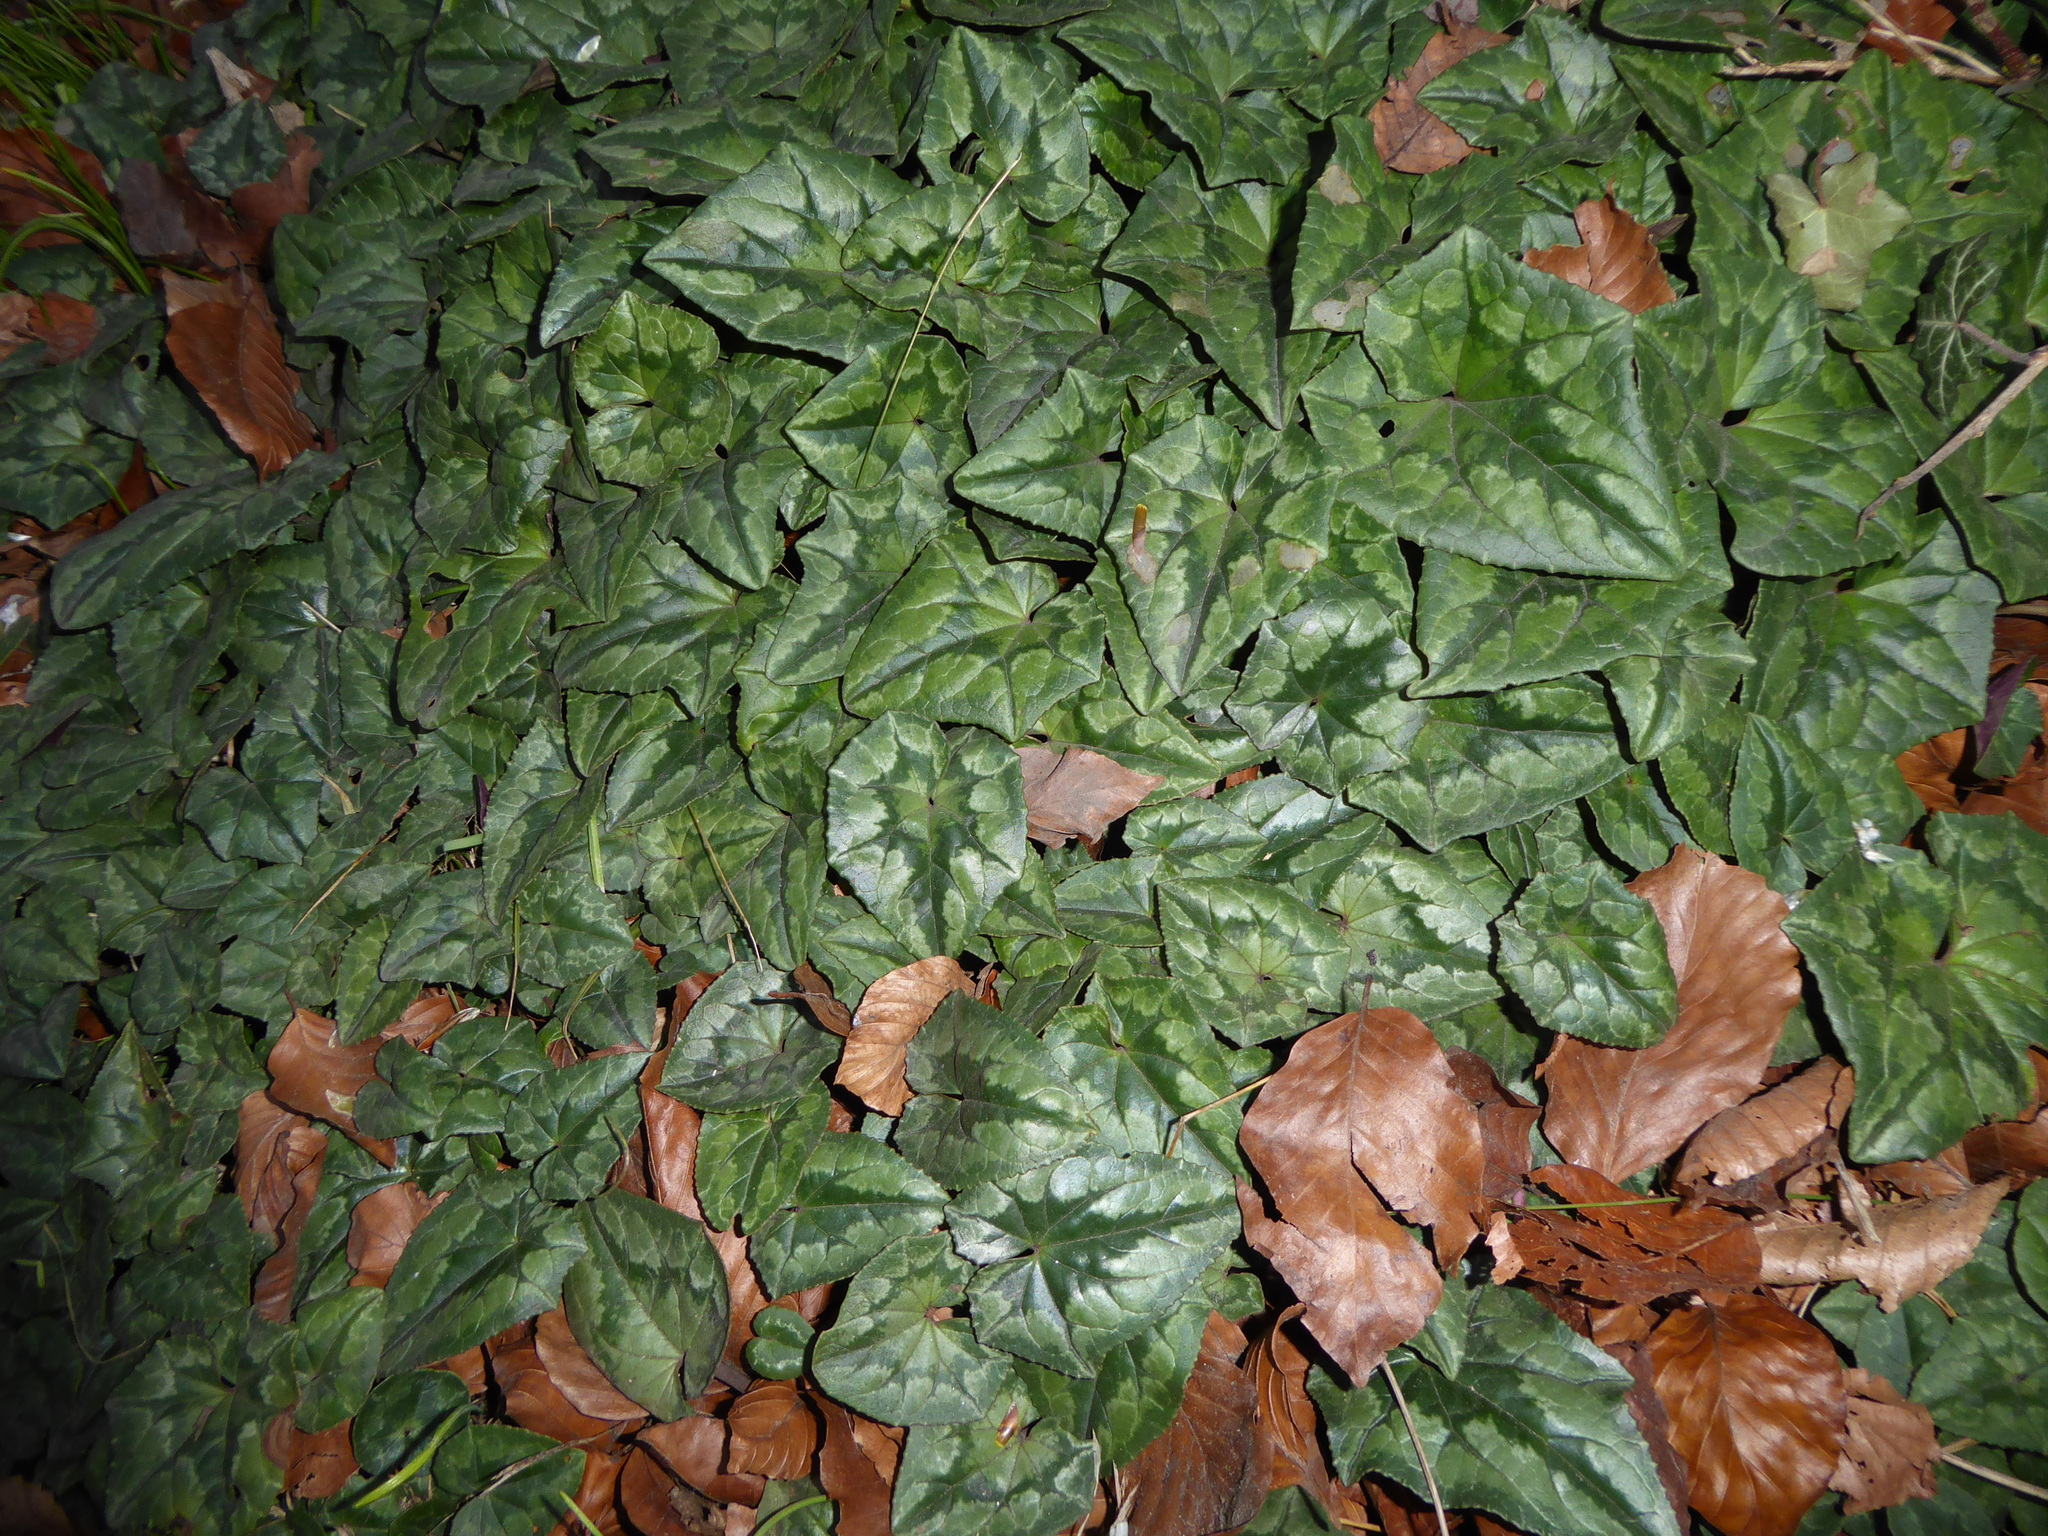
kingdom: Plantae
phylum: Tracheophyta
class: Magnoliopsida
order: Ericales
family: Primulaceae
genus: Cyclamen
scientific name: Cyclamen hederifolium
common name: Sowbread
